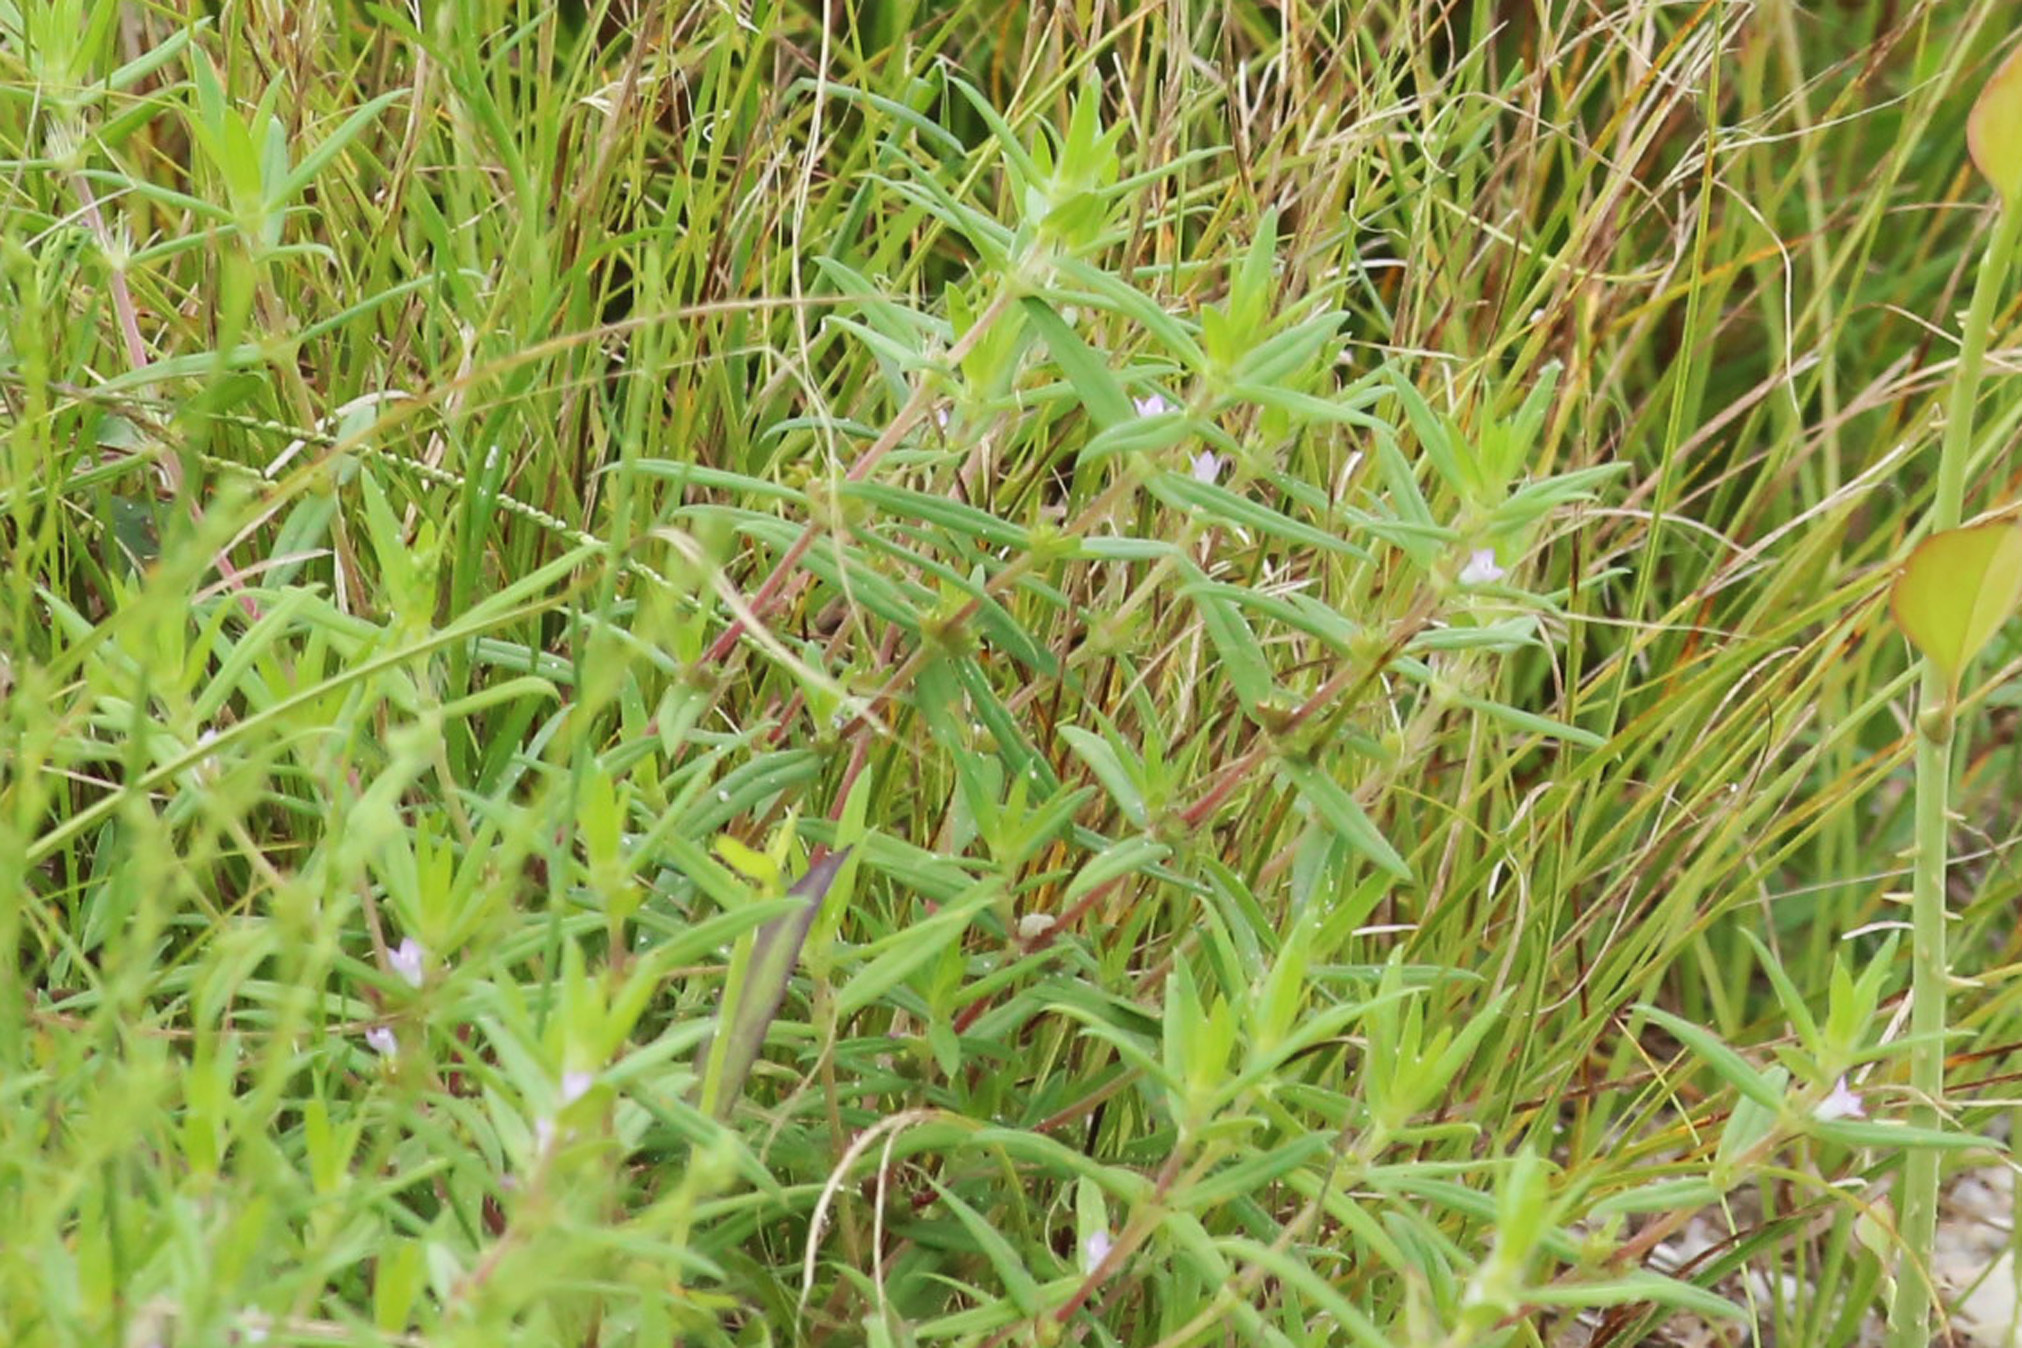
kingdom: Plantae
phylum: Tracheophyta
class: Magnoliopsida
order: Gentianales
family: Rubiaceae
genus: Hexasepalum
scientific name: Hexasepalum teres
